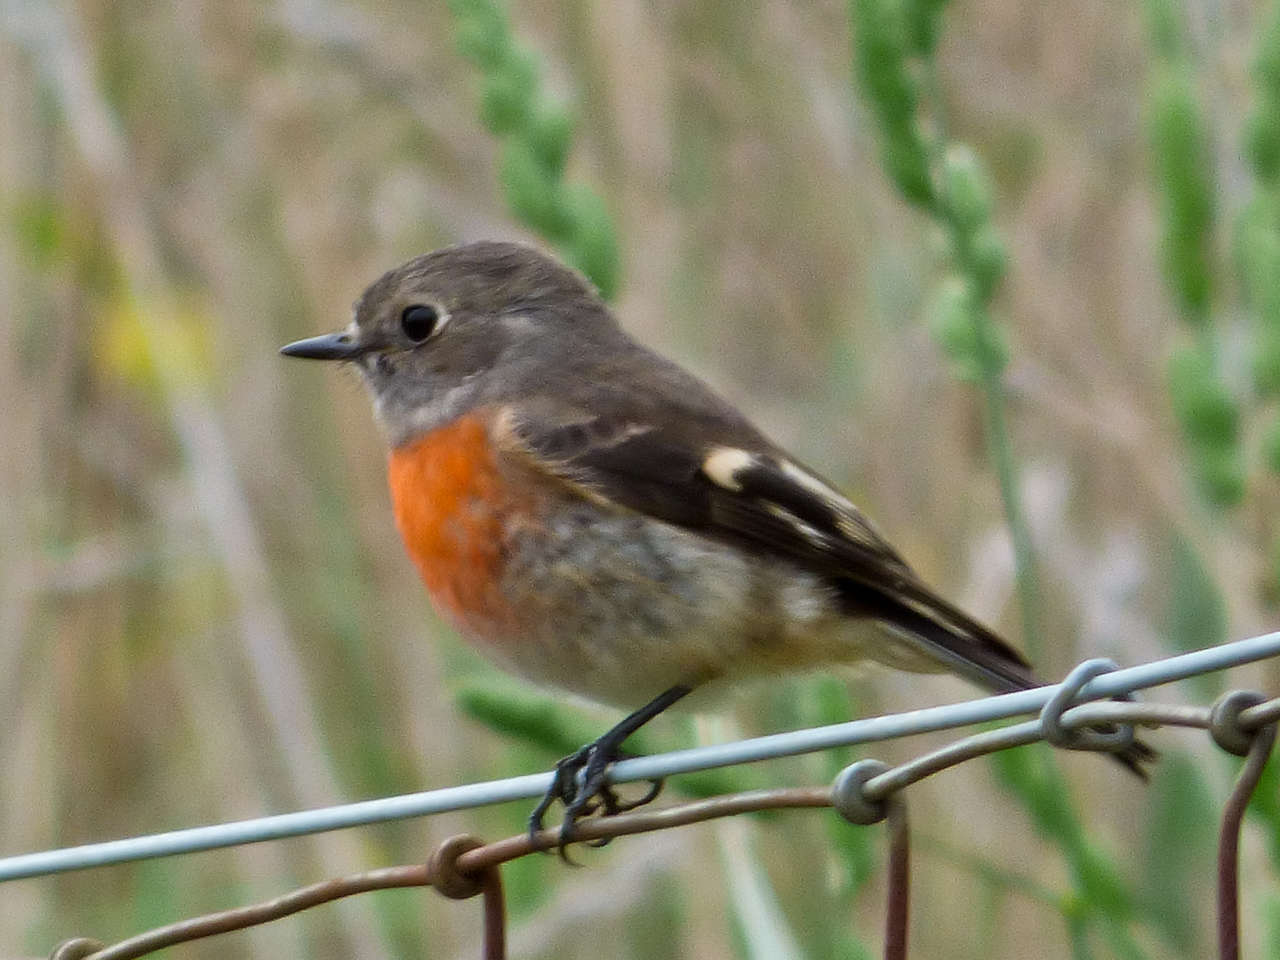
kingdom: Animalia
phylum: Chordata
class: Aves
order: Passeriformes
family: Petroicidae
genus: Petroica
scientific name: Petroica boodang
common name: Scarlet robin
